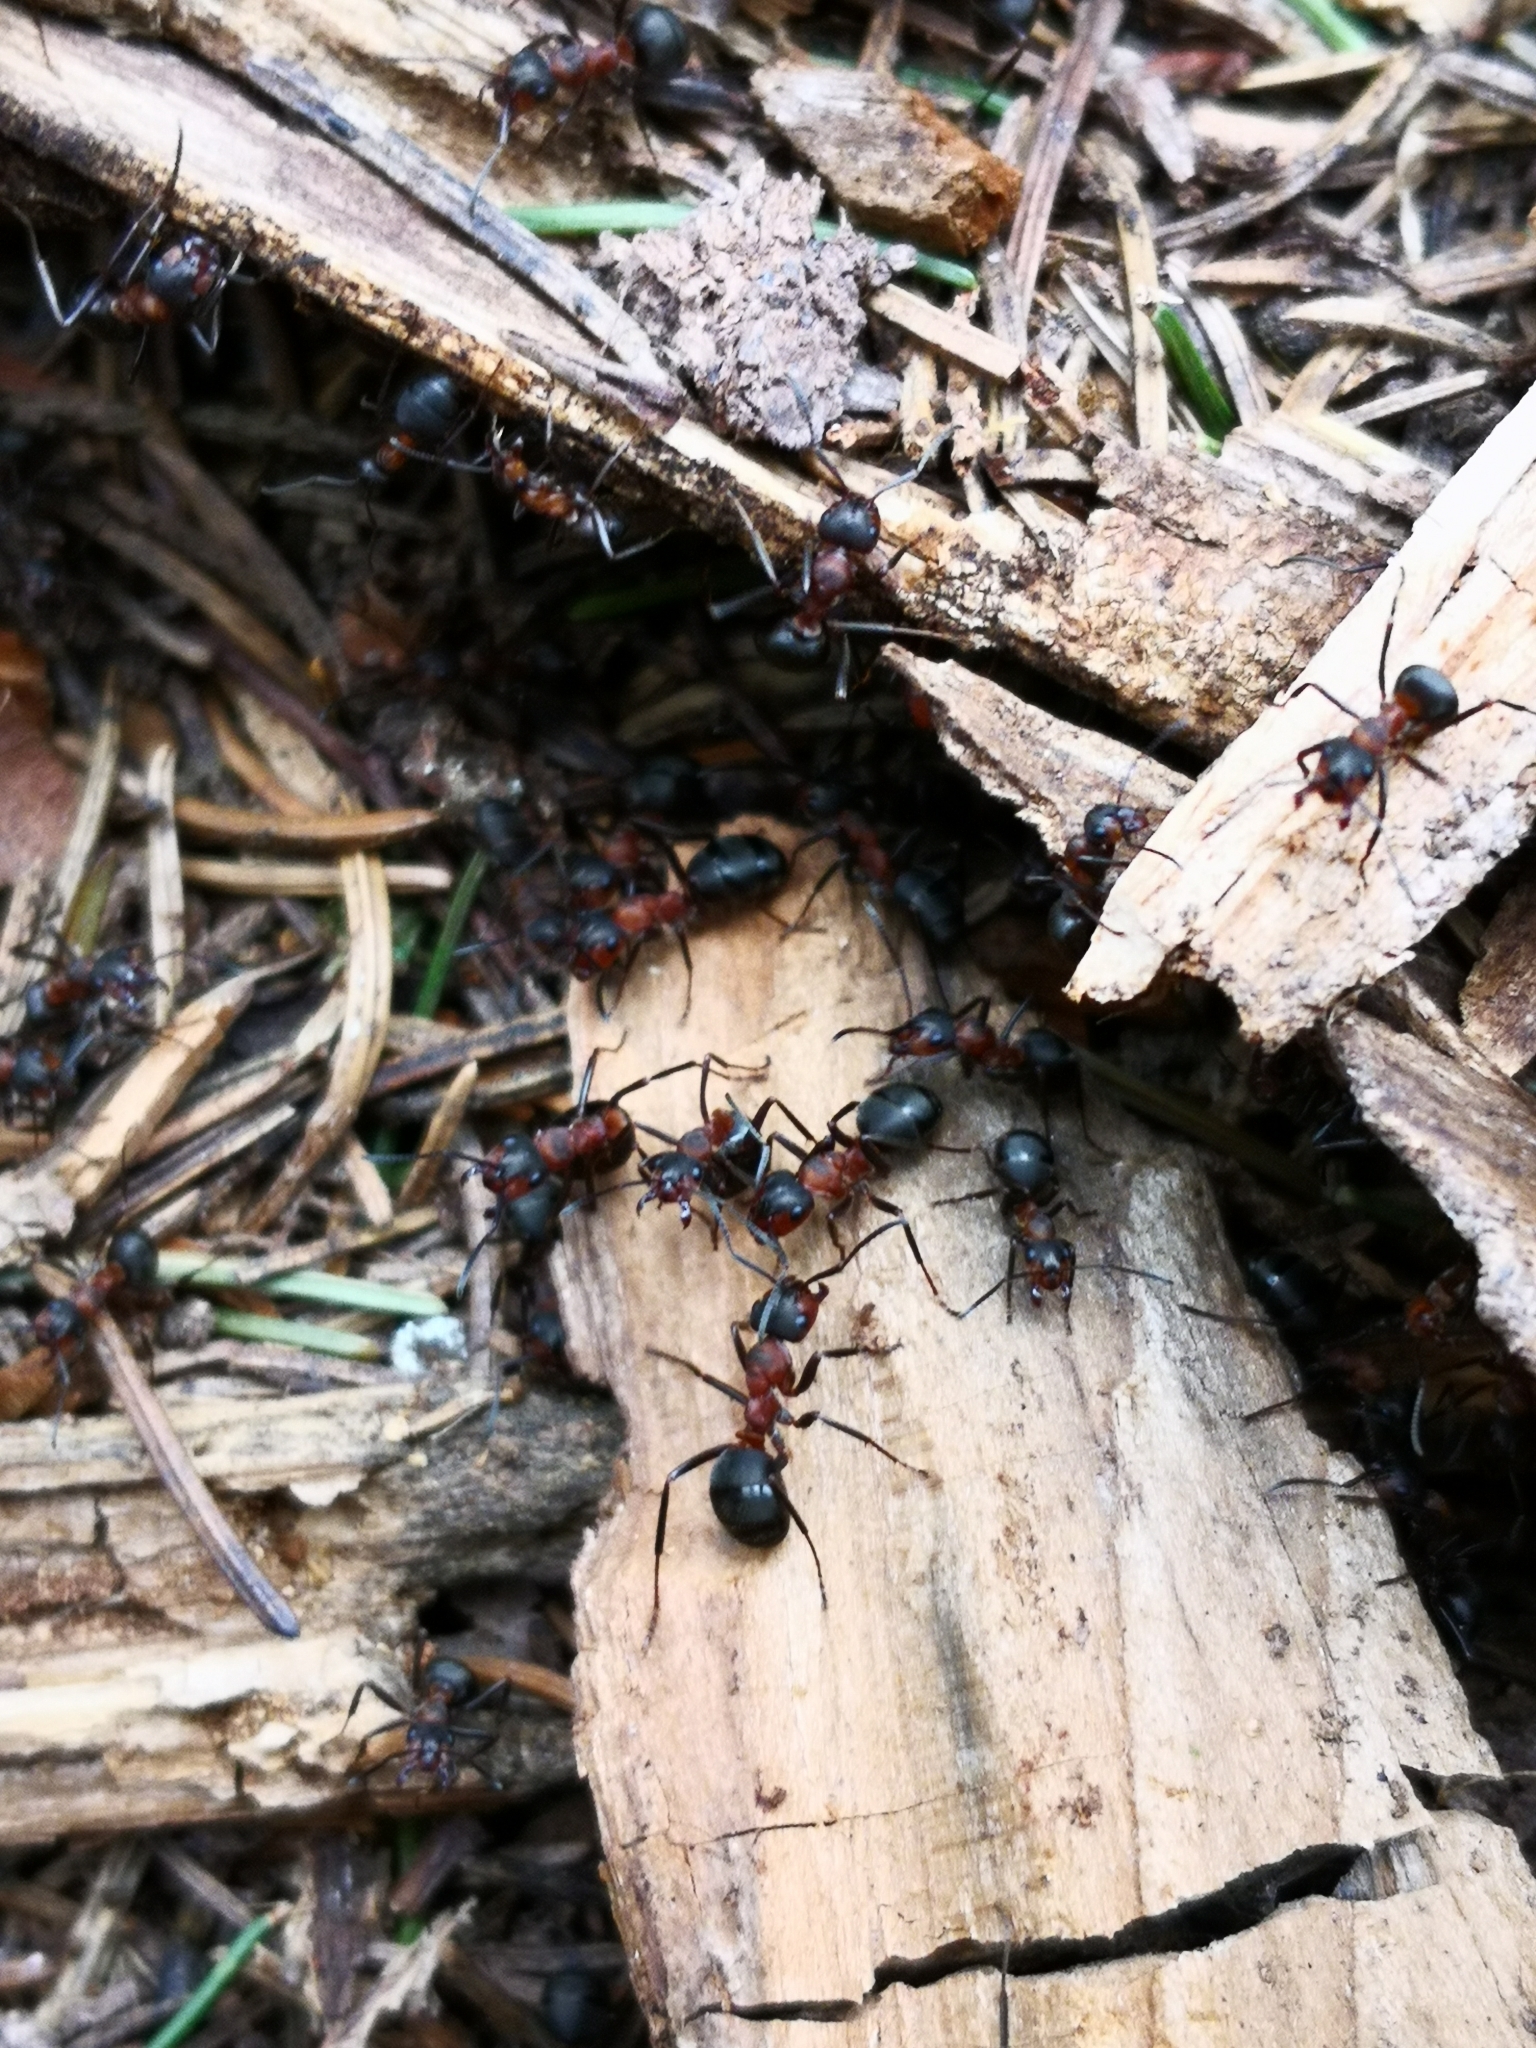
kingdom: Animalia
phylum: Arthropoda
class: Insecta
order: Hymenoptera
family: Formicidae
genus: Formica
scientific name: Formica rufa
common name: Red wood ant
